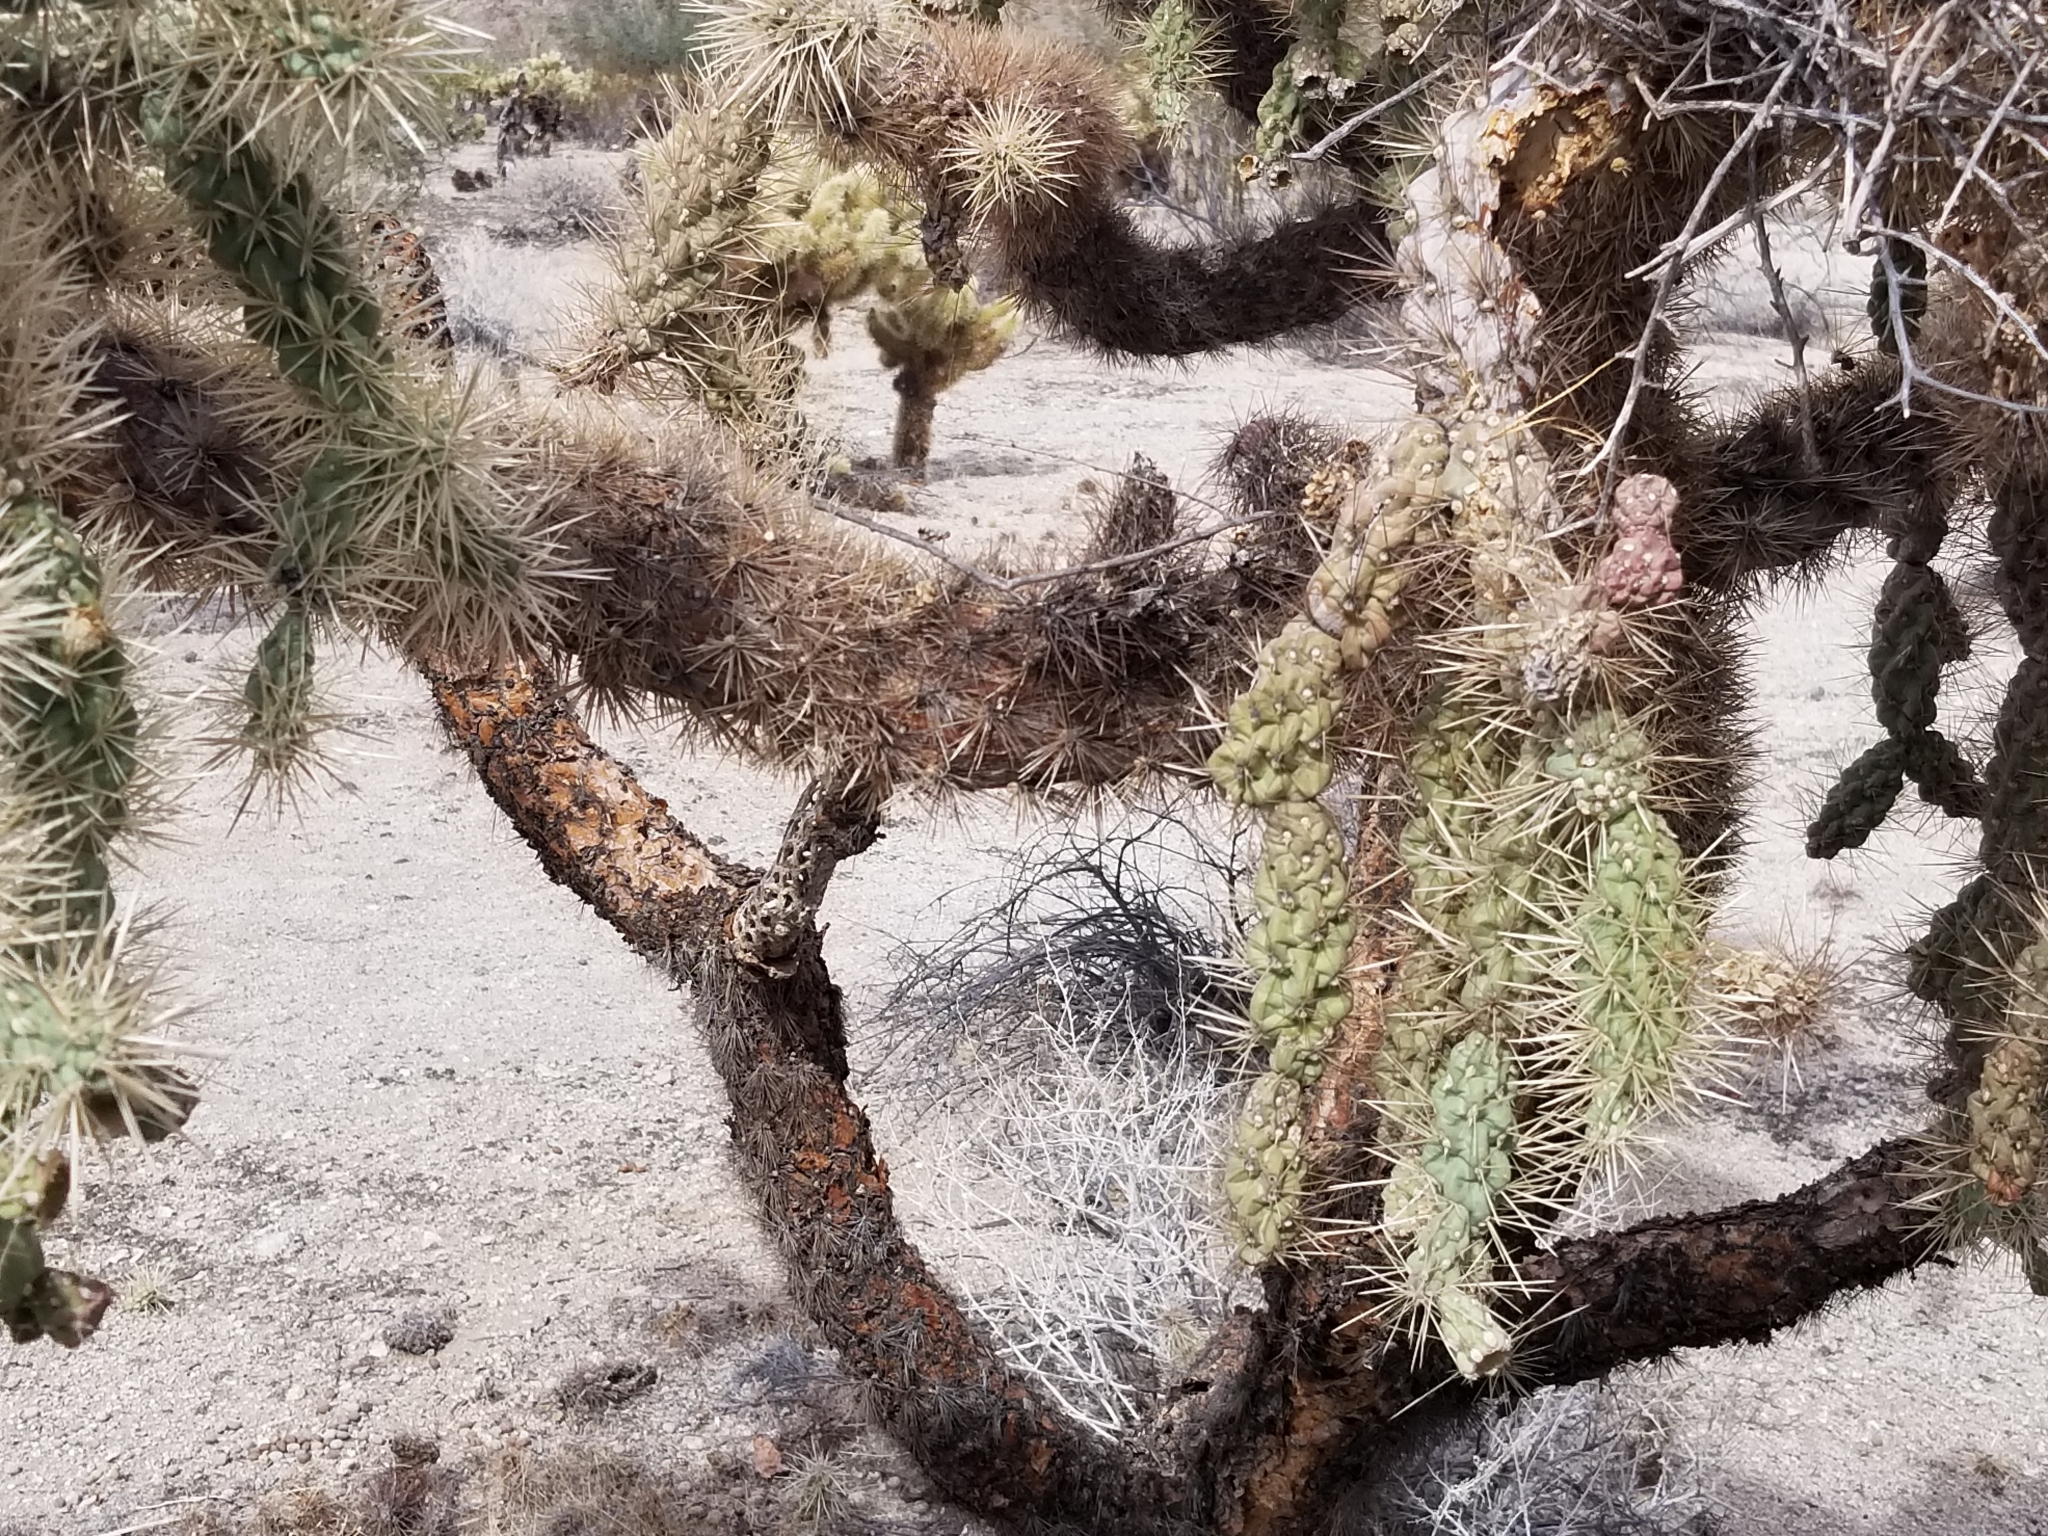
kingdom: Plantae
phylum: Tracheophyta
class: Magnoliopsida
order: Caryophyllales
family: Cactaceae
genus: Cylindropuntia
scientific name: Cylindropuntia fulgida
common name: Jumping cholla
